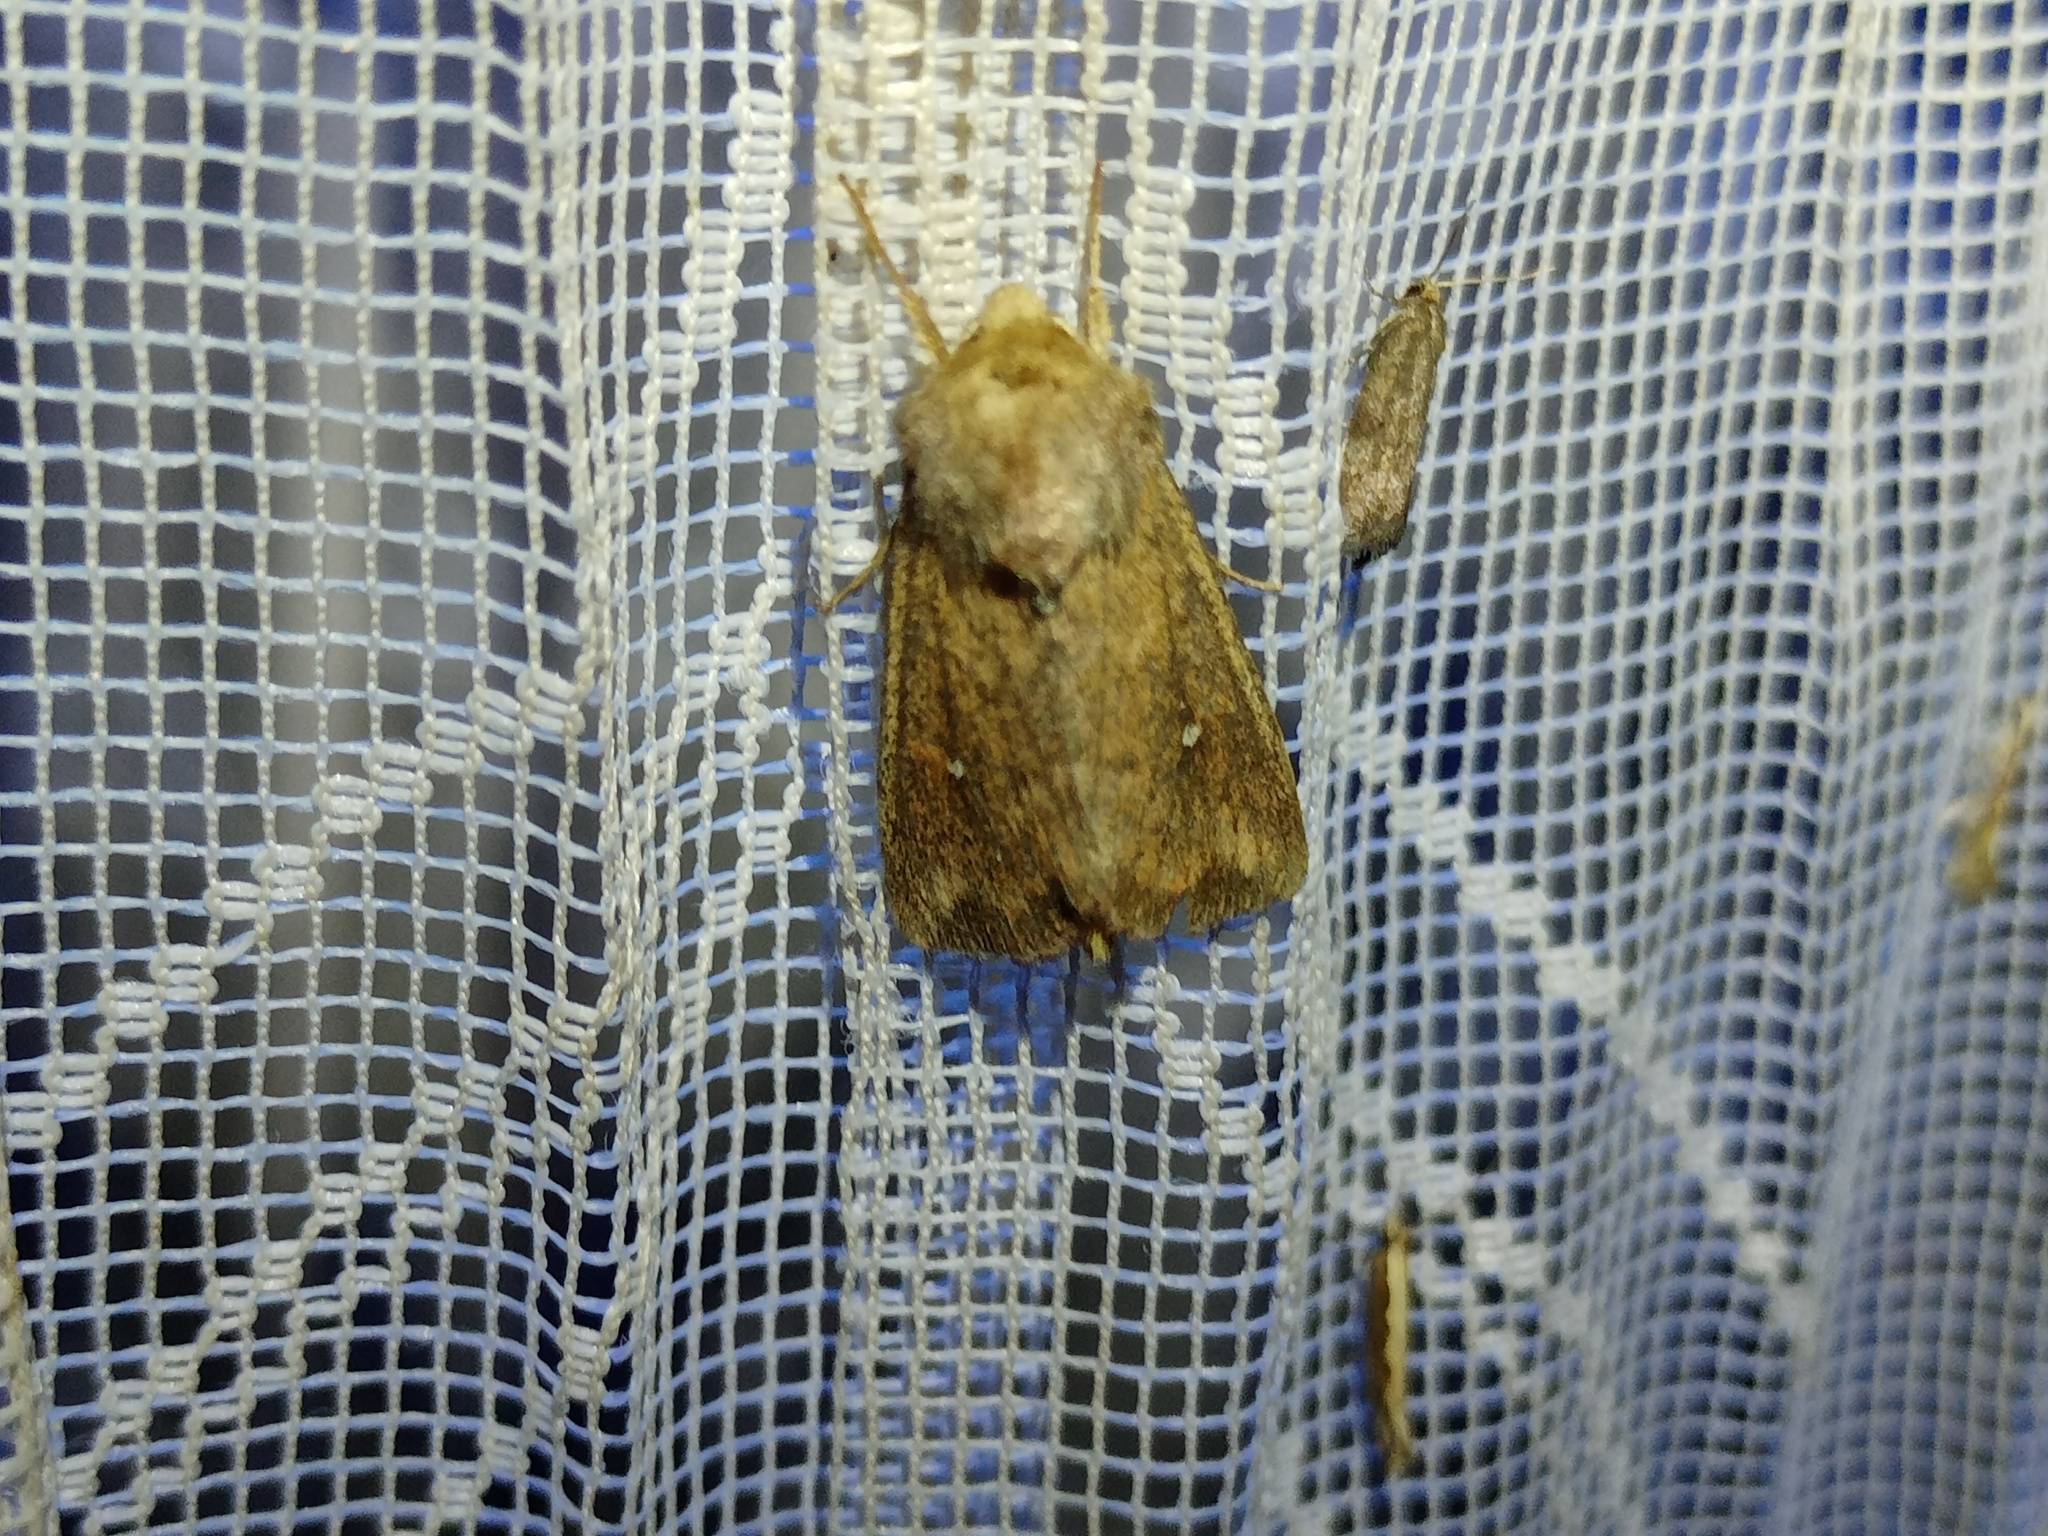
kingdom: Animalia
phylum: Arthropoda
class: Insecta
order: Lepidoptera
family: Noctuidae
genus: Mythimna
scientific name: Mythimna albipuncta
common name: White-point
